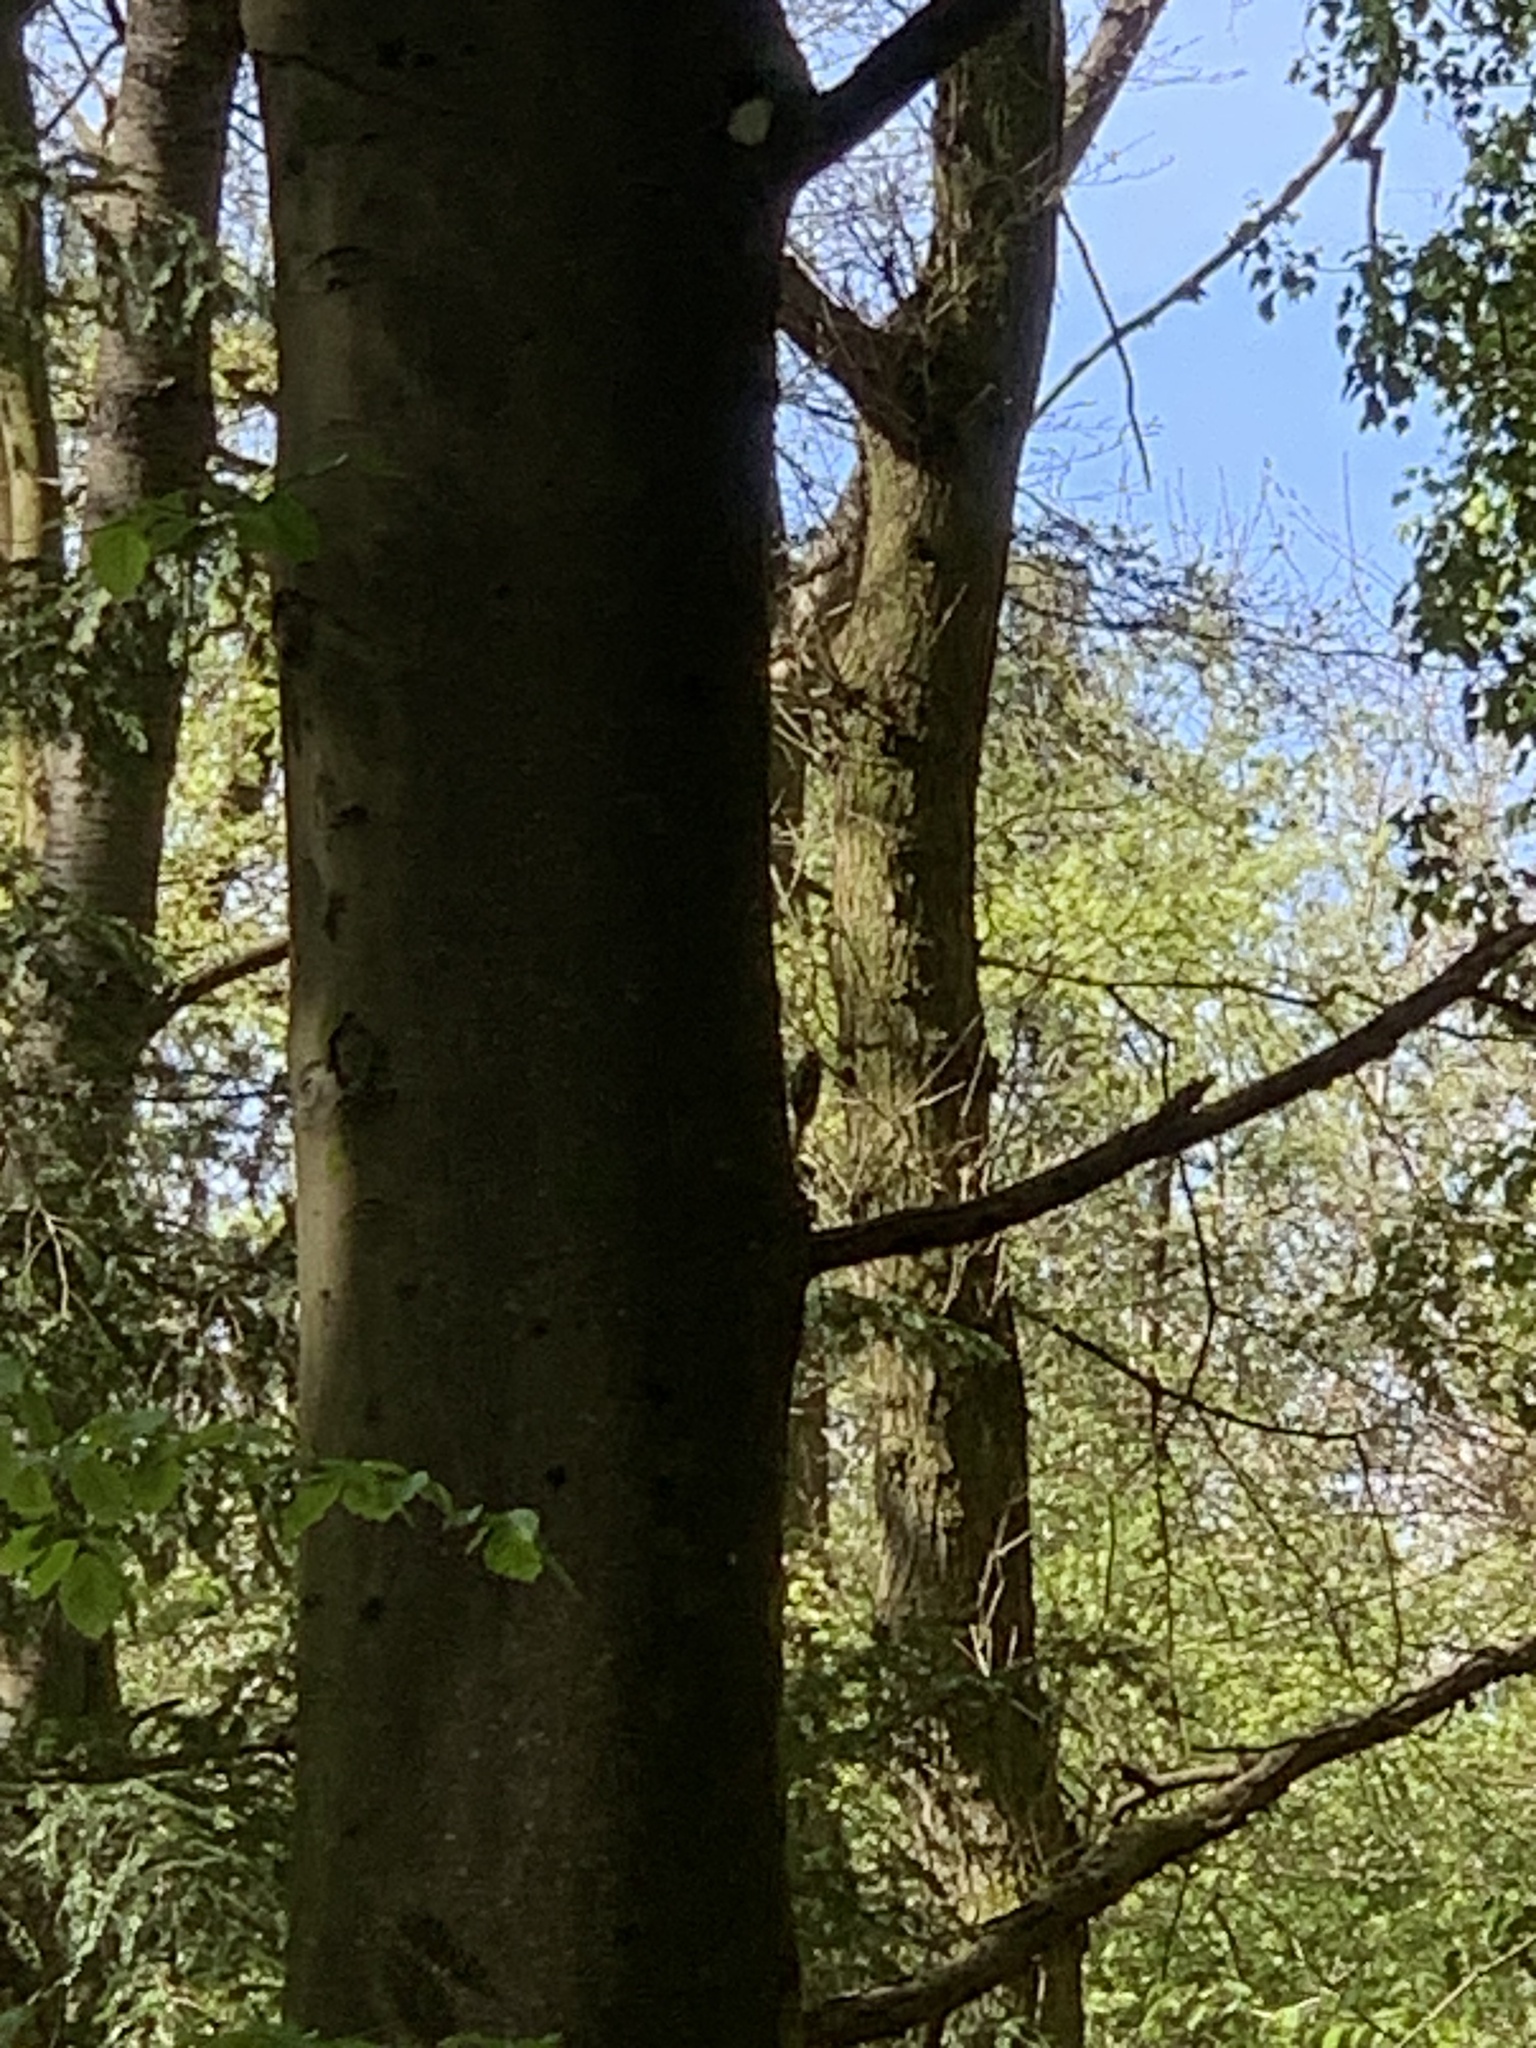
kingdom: Animalia
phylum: Chordata
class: Aves
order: Passeriformes
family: Certhiidae
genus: Certhia
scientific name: Certhia familiaris
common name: Eurasian treecreeper
